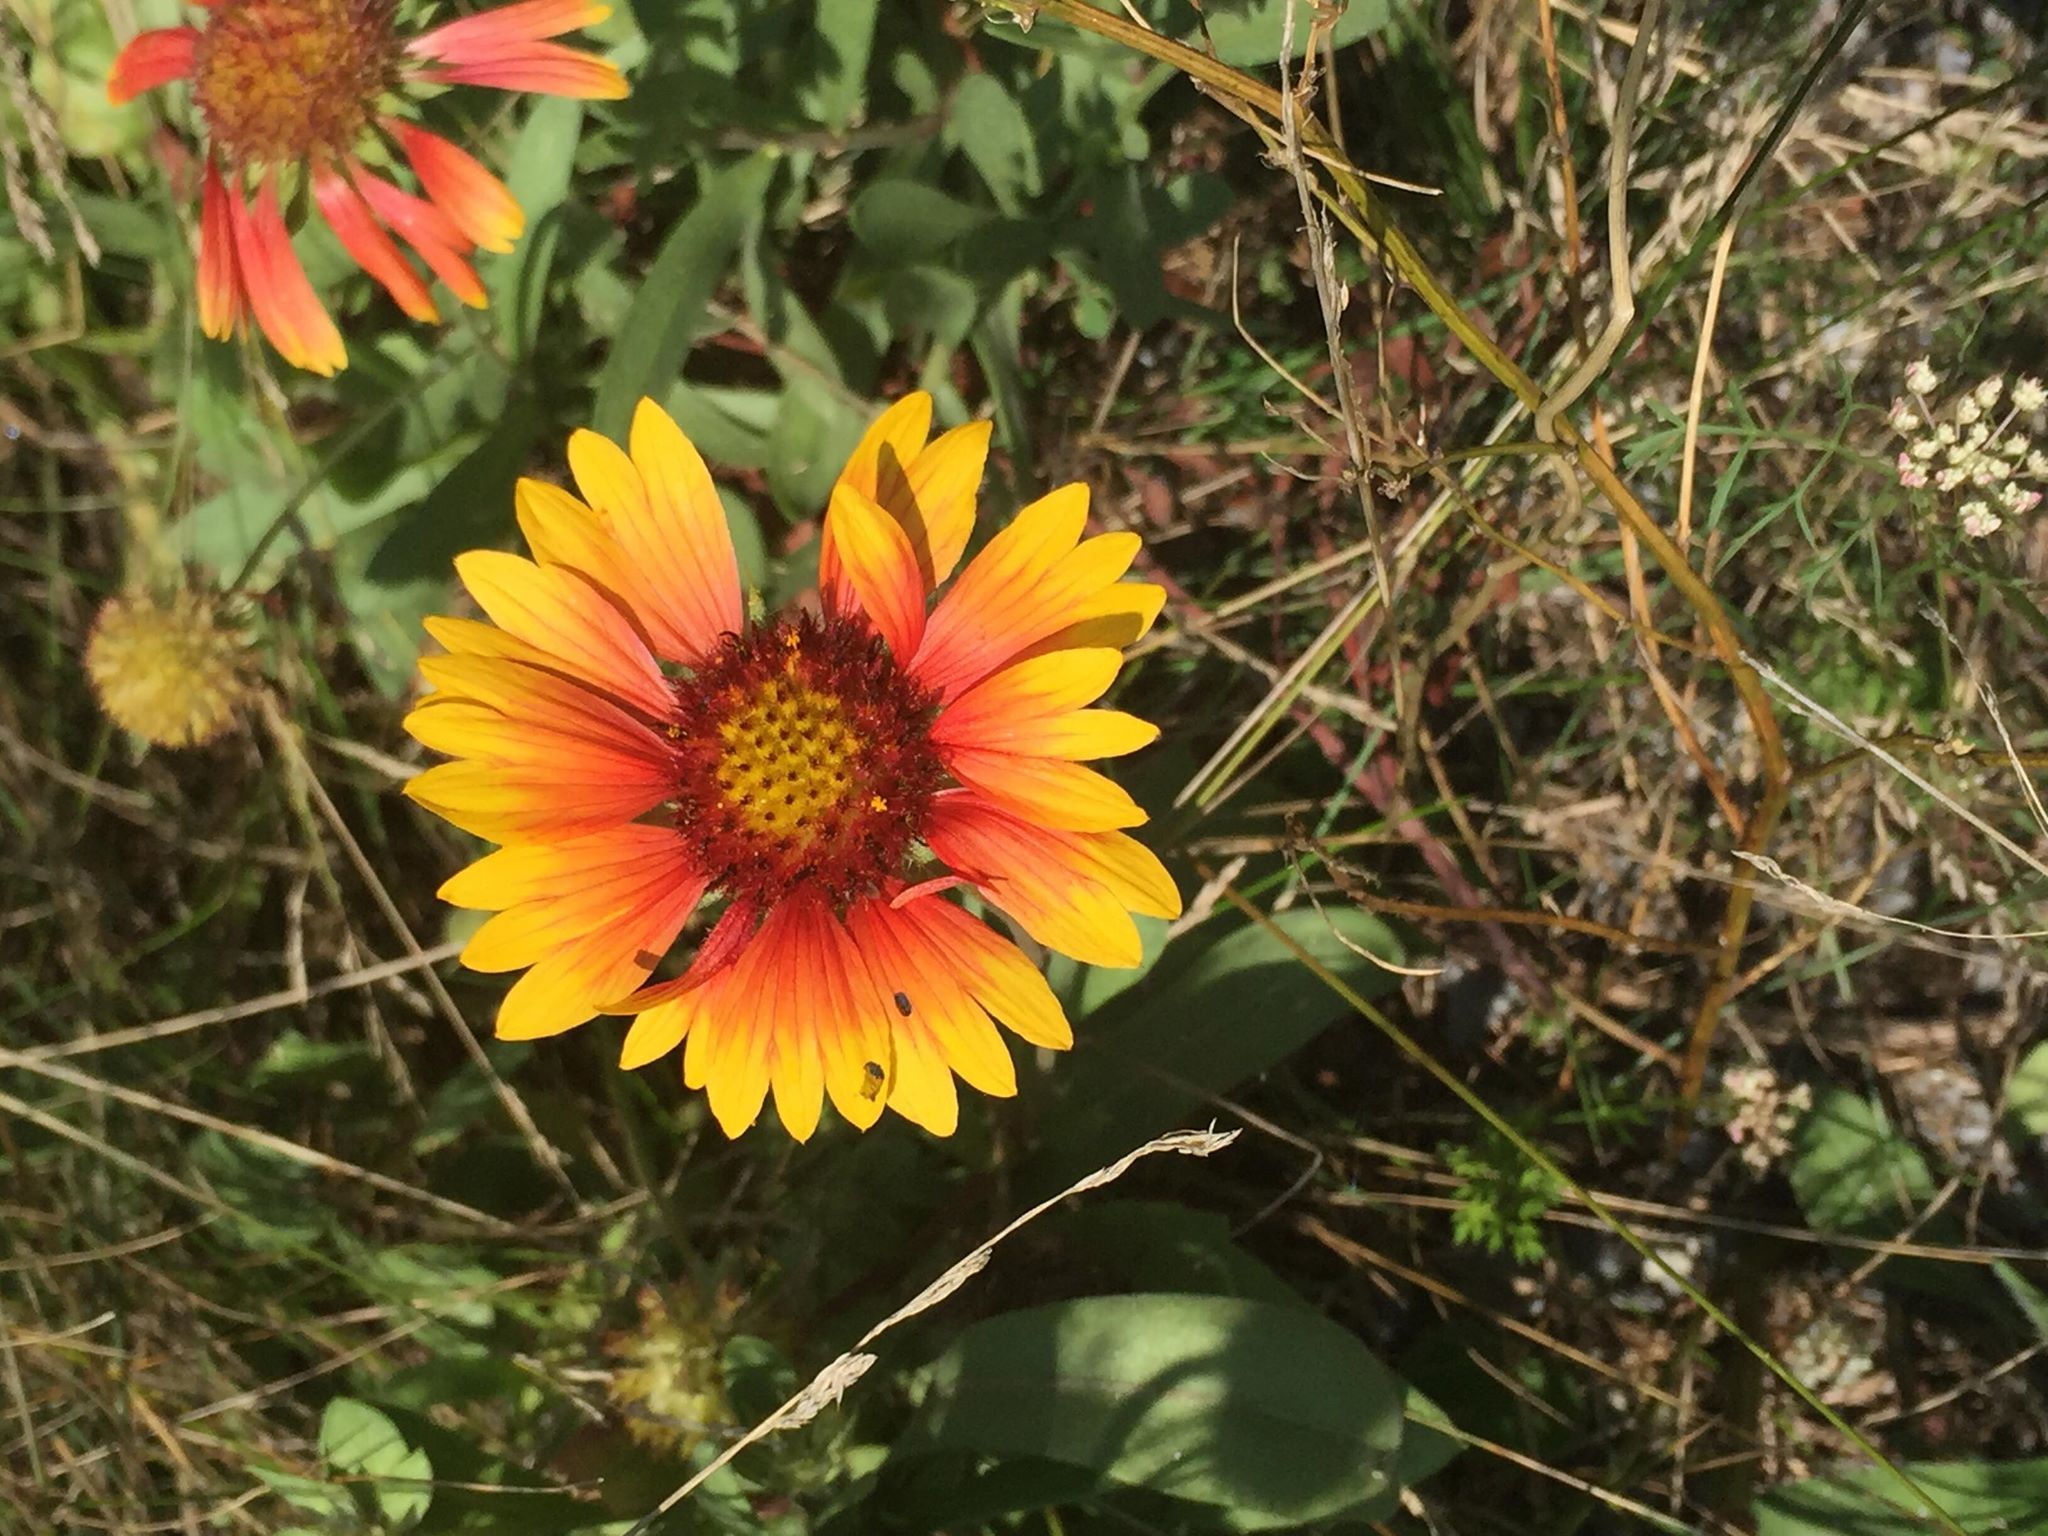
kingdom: Plantae
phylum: Tracheophyta
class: Magnoliopsida
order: Asterales
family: Asteraceae
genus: Gaillardia
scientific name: Gaillardia pulchella
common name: Firewheel
